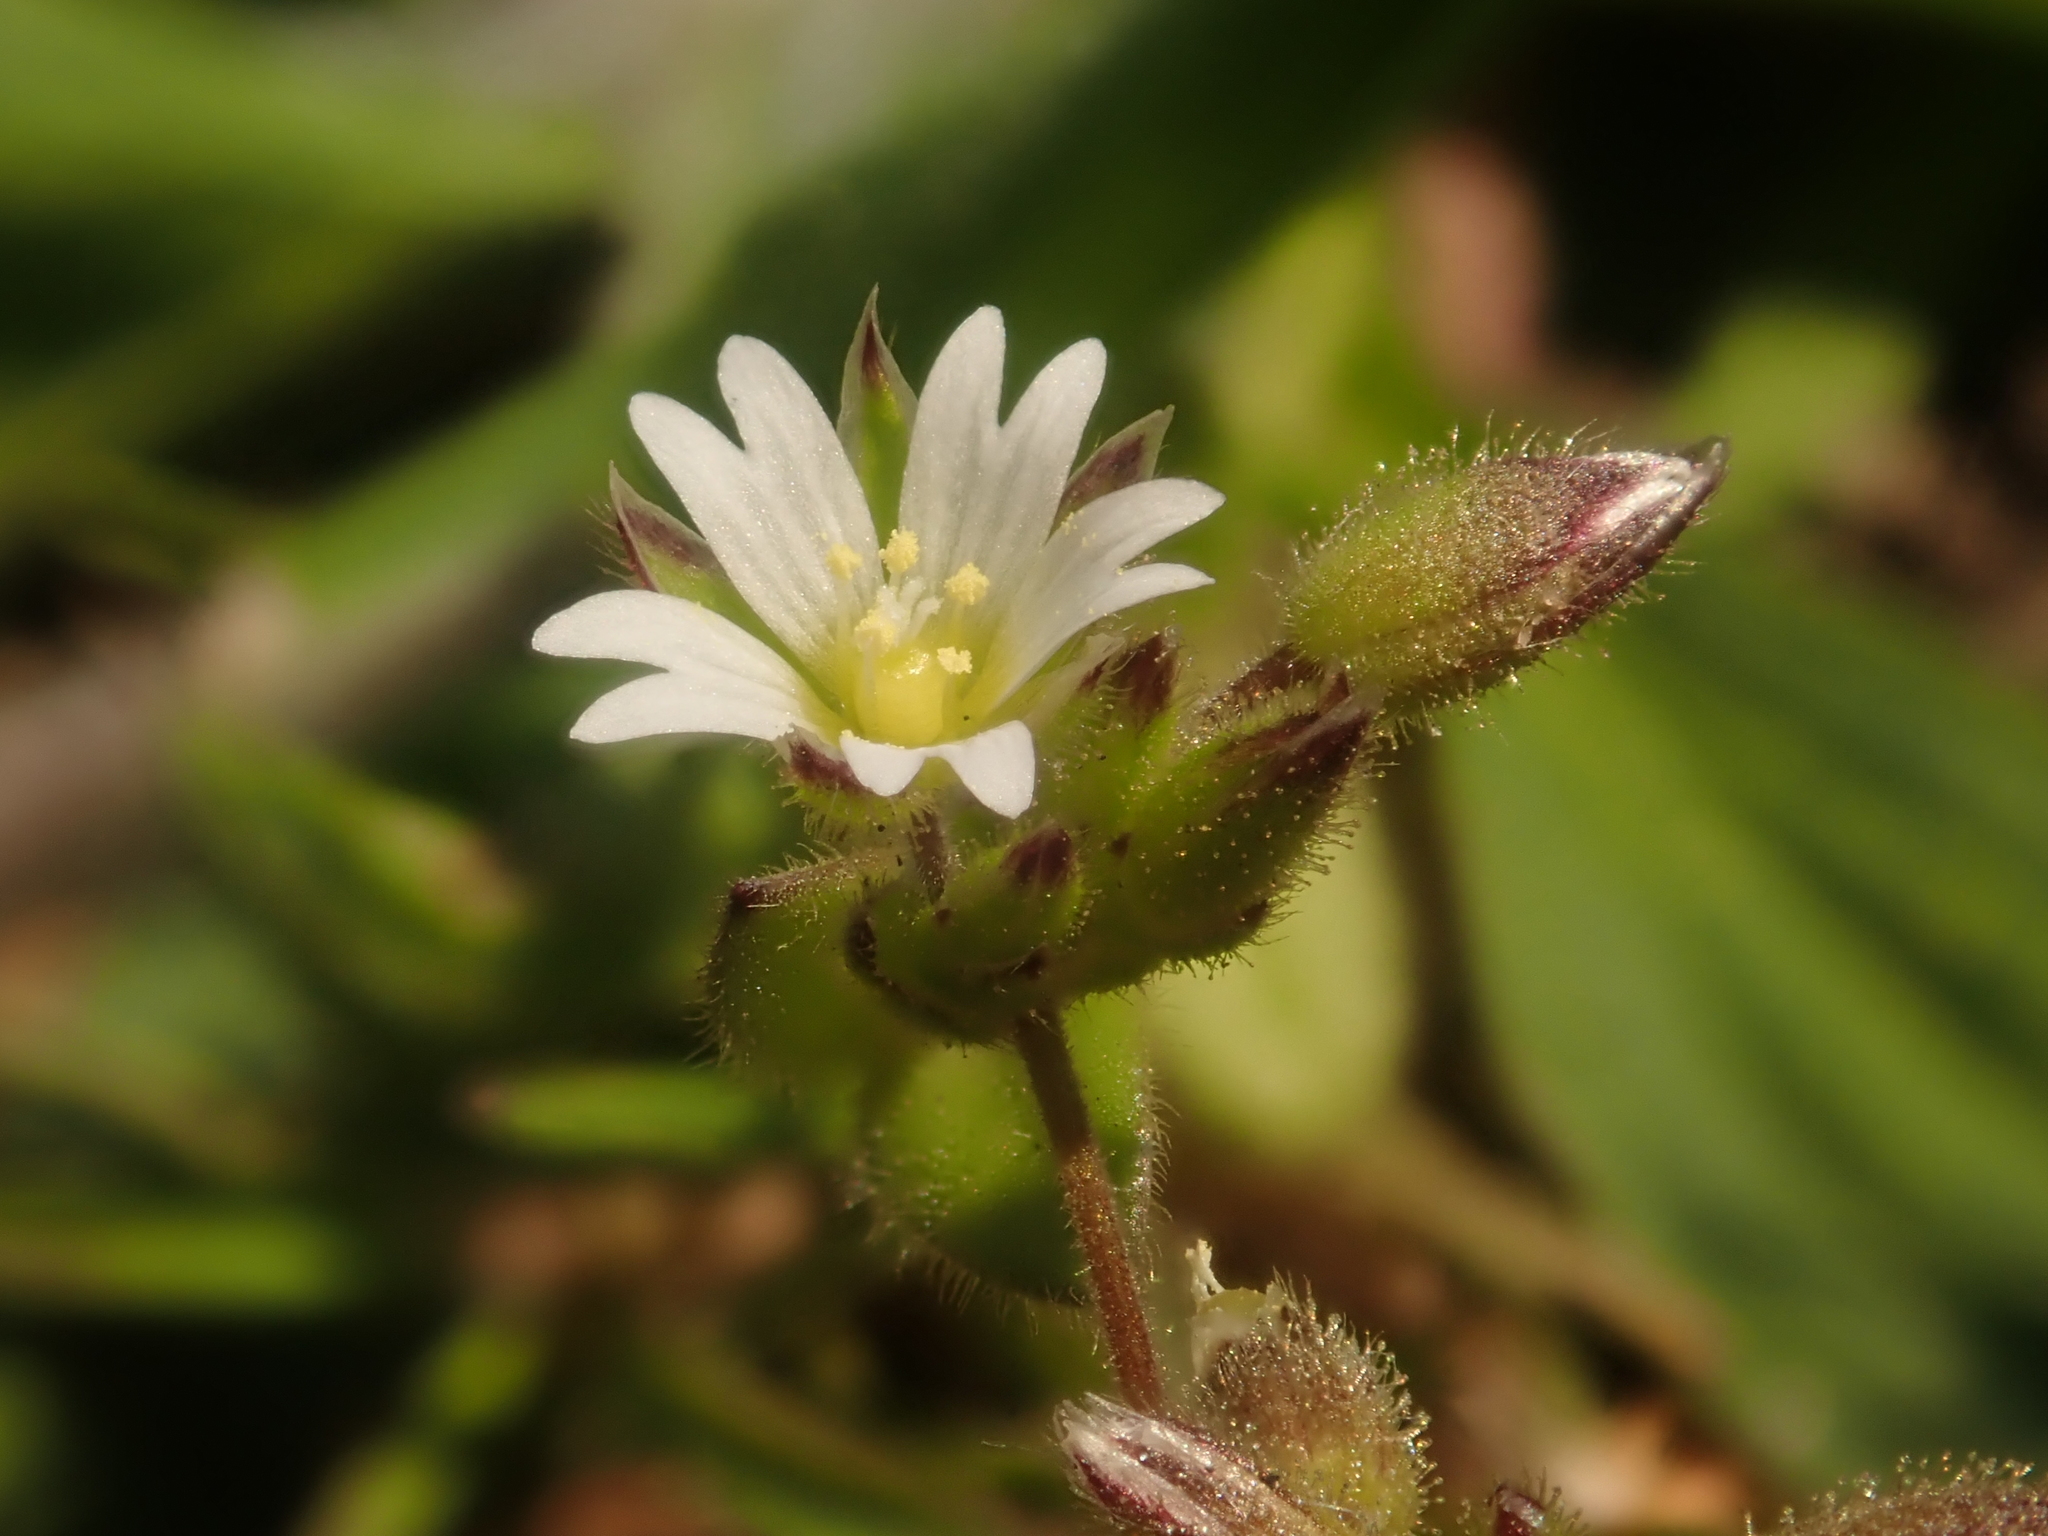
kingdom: Plantae
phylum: Tracheophyta
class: Magnoliopsida
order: Caryophyllales
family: Caryophyllaceae
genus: Cerastium
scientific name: Cerastium semidecandrum
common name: Little mouse-ear
